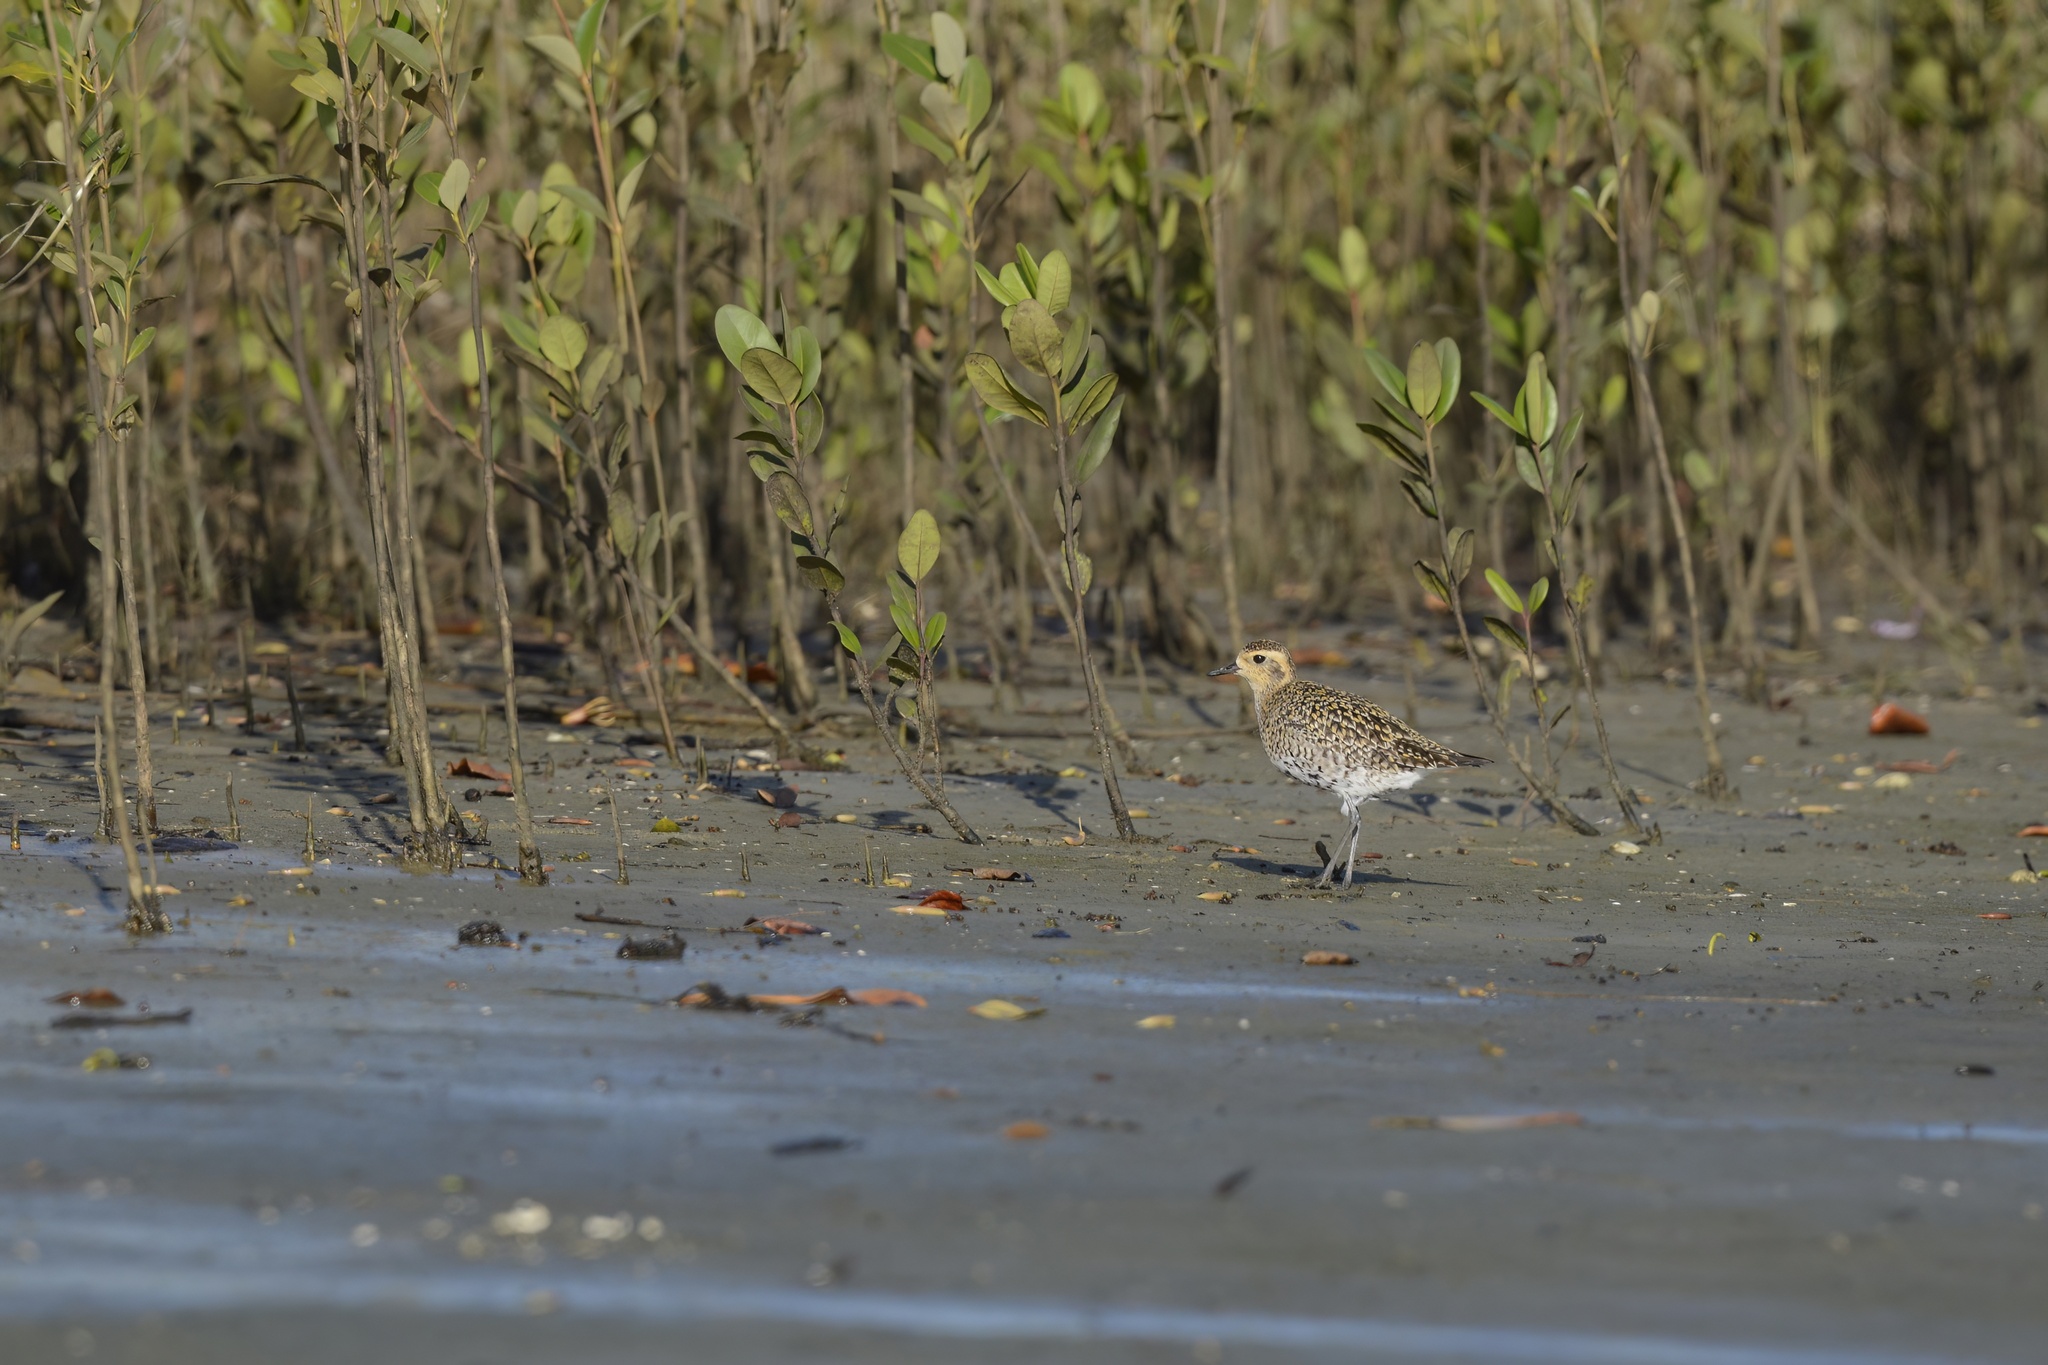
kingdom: Animalia
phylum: Chordata
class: Aves
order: Charadriiformes
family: Charadriidae
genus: Pluvialis
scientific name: Pluvialis fulva
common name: Pacific golden plover
